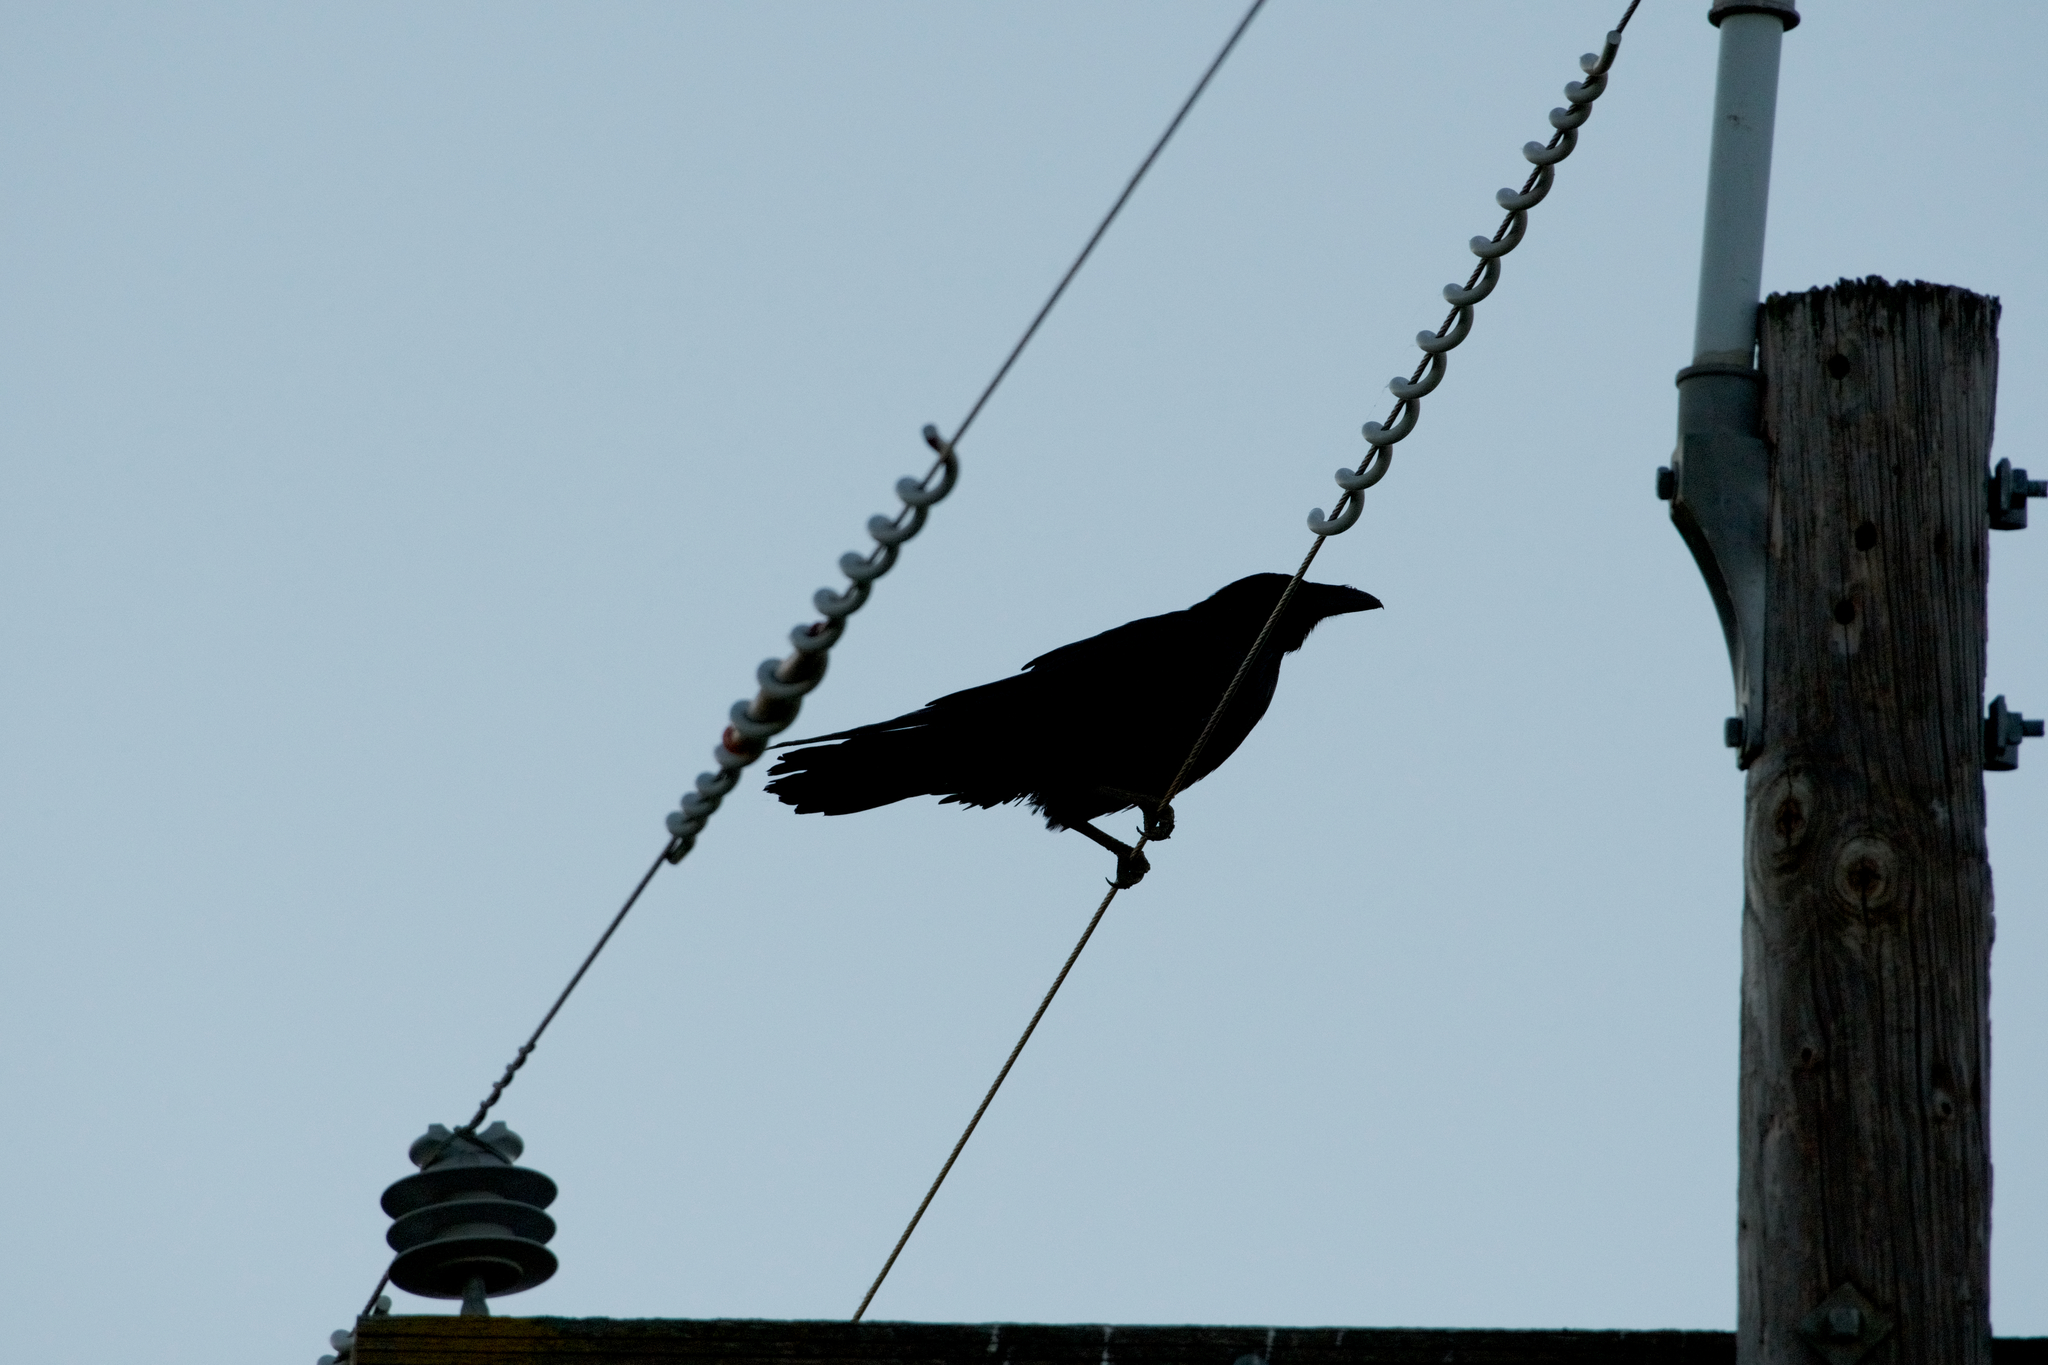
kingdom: Animalia
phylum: Chordata
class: Aves
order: Passeriformes
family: Corvidae
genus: Corvus
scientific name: Corvus brachyrhynchos
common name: American crow
